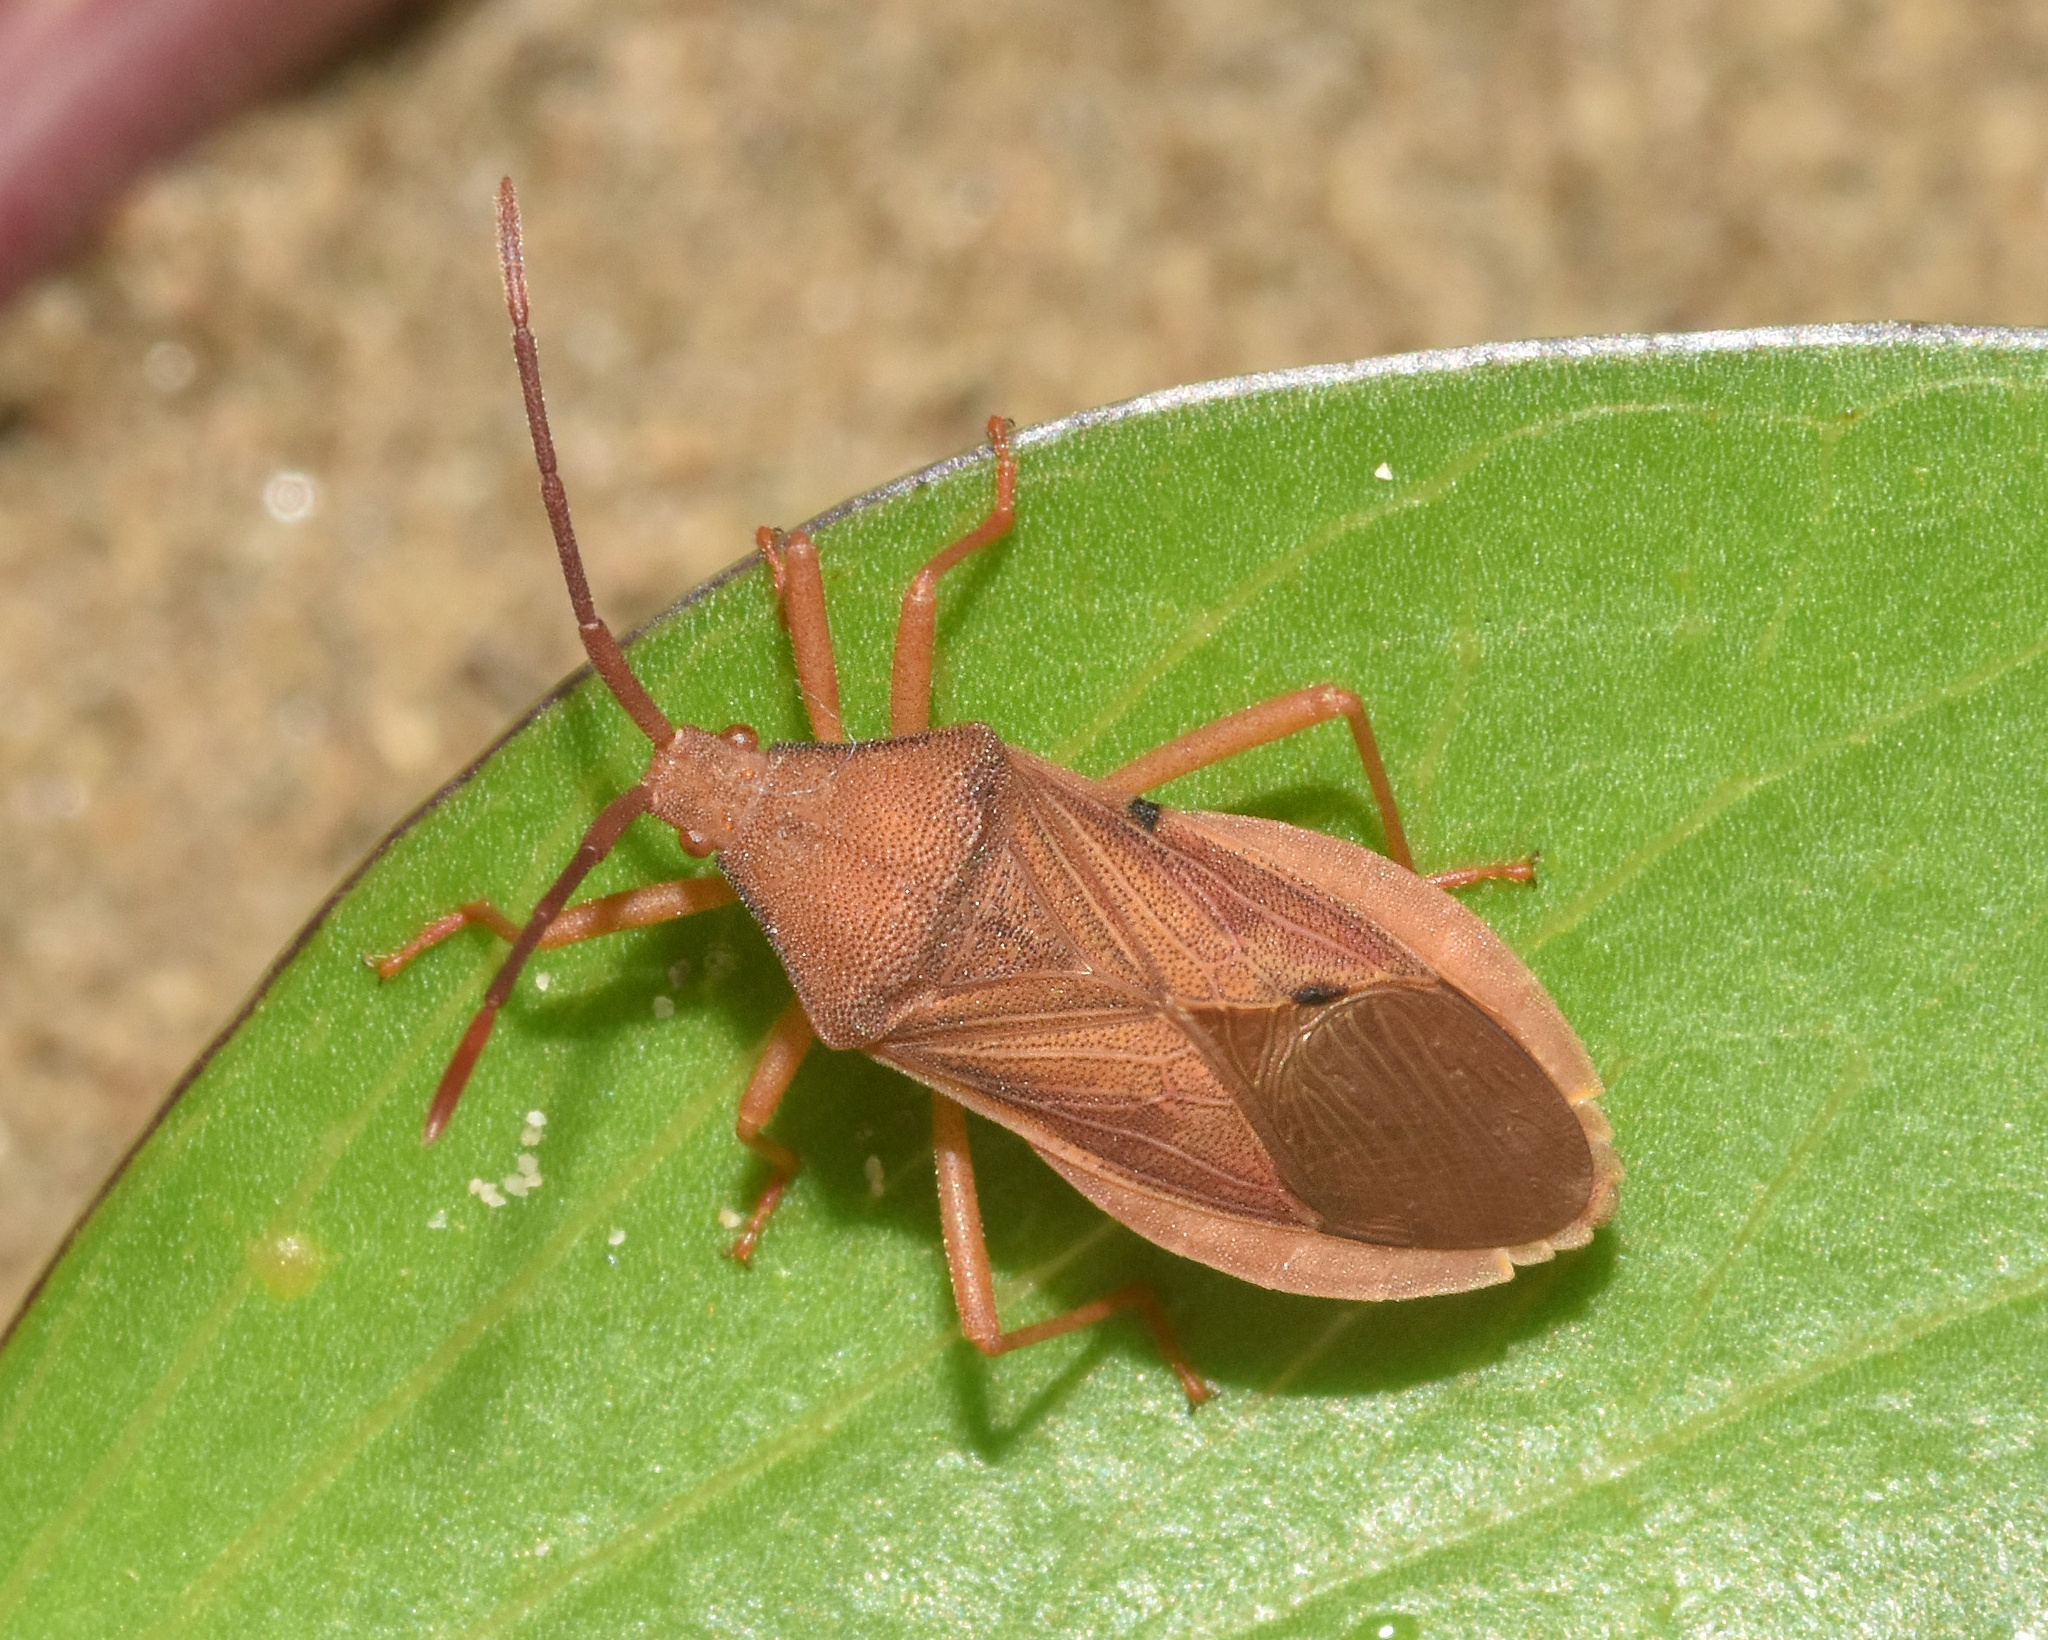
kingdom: Animalia
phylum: Arthropoda
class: Insecta
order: Hemiptera
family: Coreidae
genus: Ptyctus
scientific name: Ptyctus punctatus
